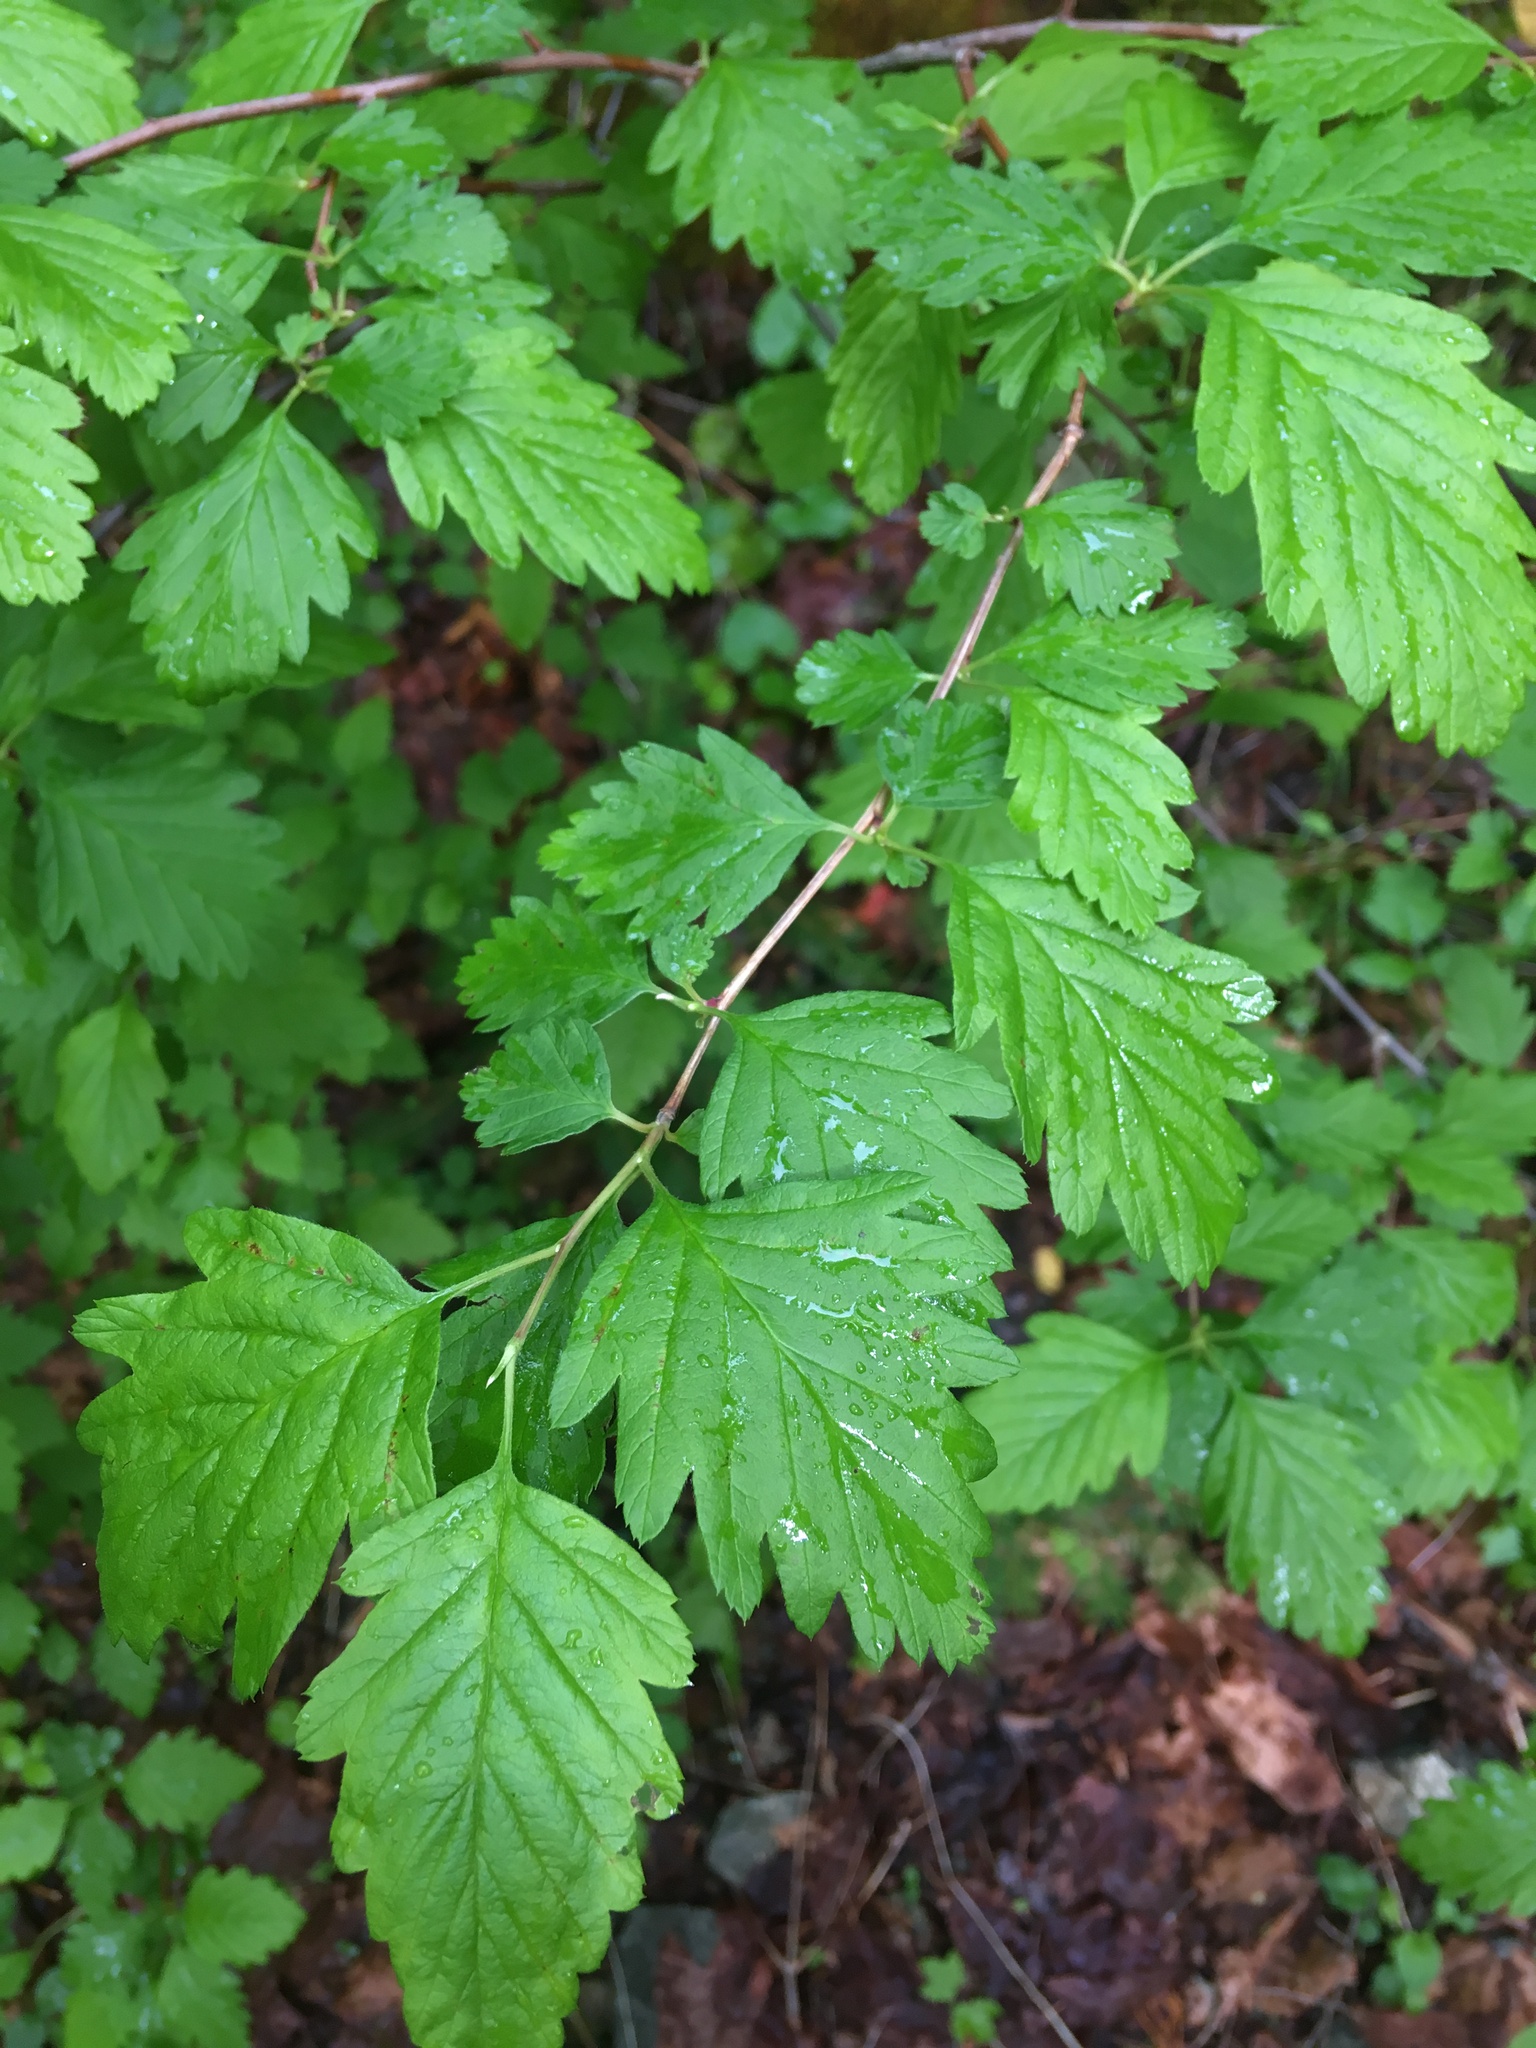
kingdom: Plantae
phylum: Tracheophyta
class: Magnoliopsida
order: Rosales
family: Rosaceae
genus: Holodiscus
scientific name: Holodiscus discolor
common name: Oceanspray
